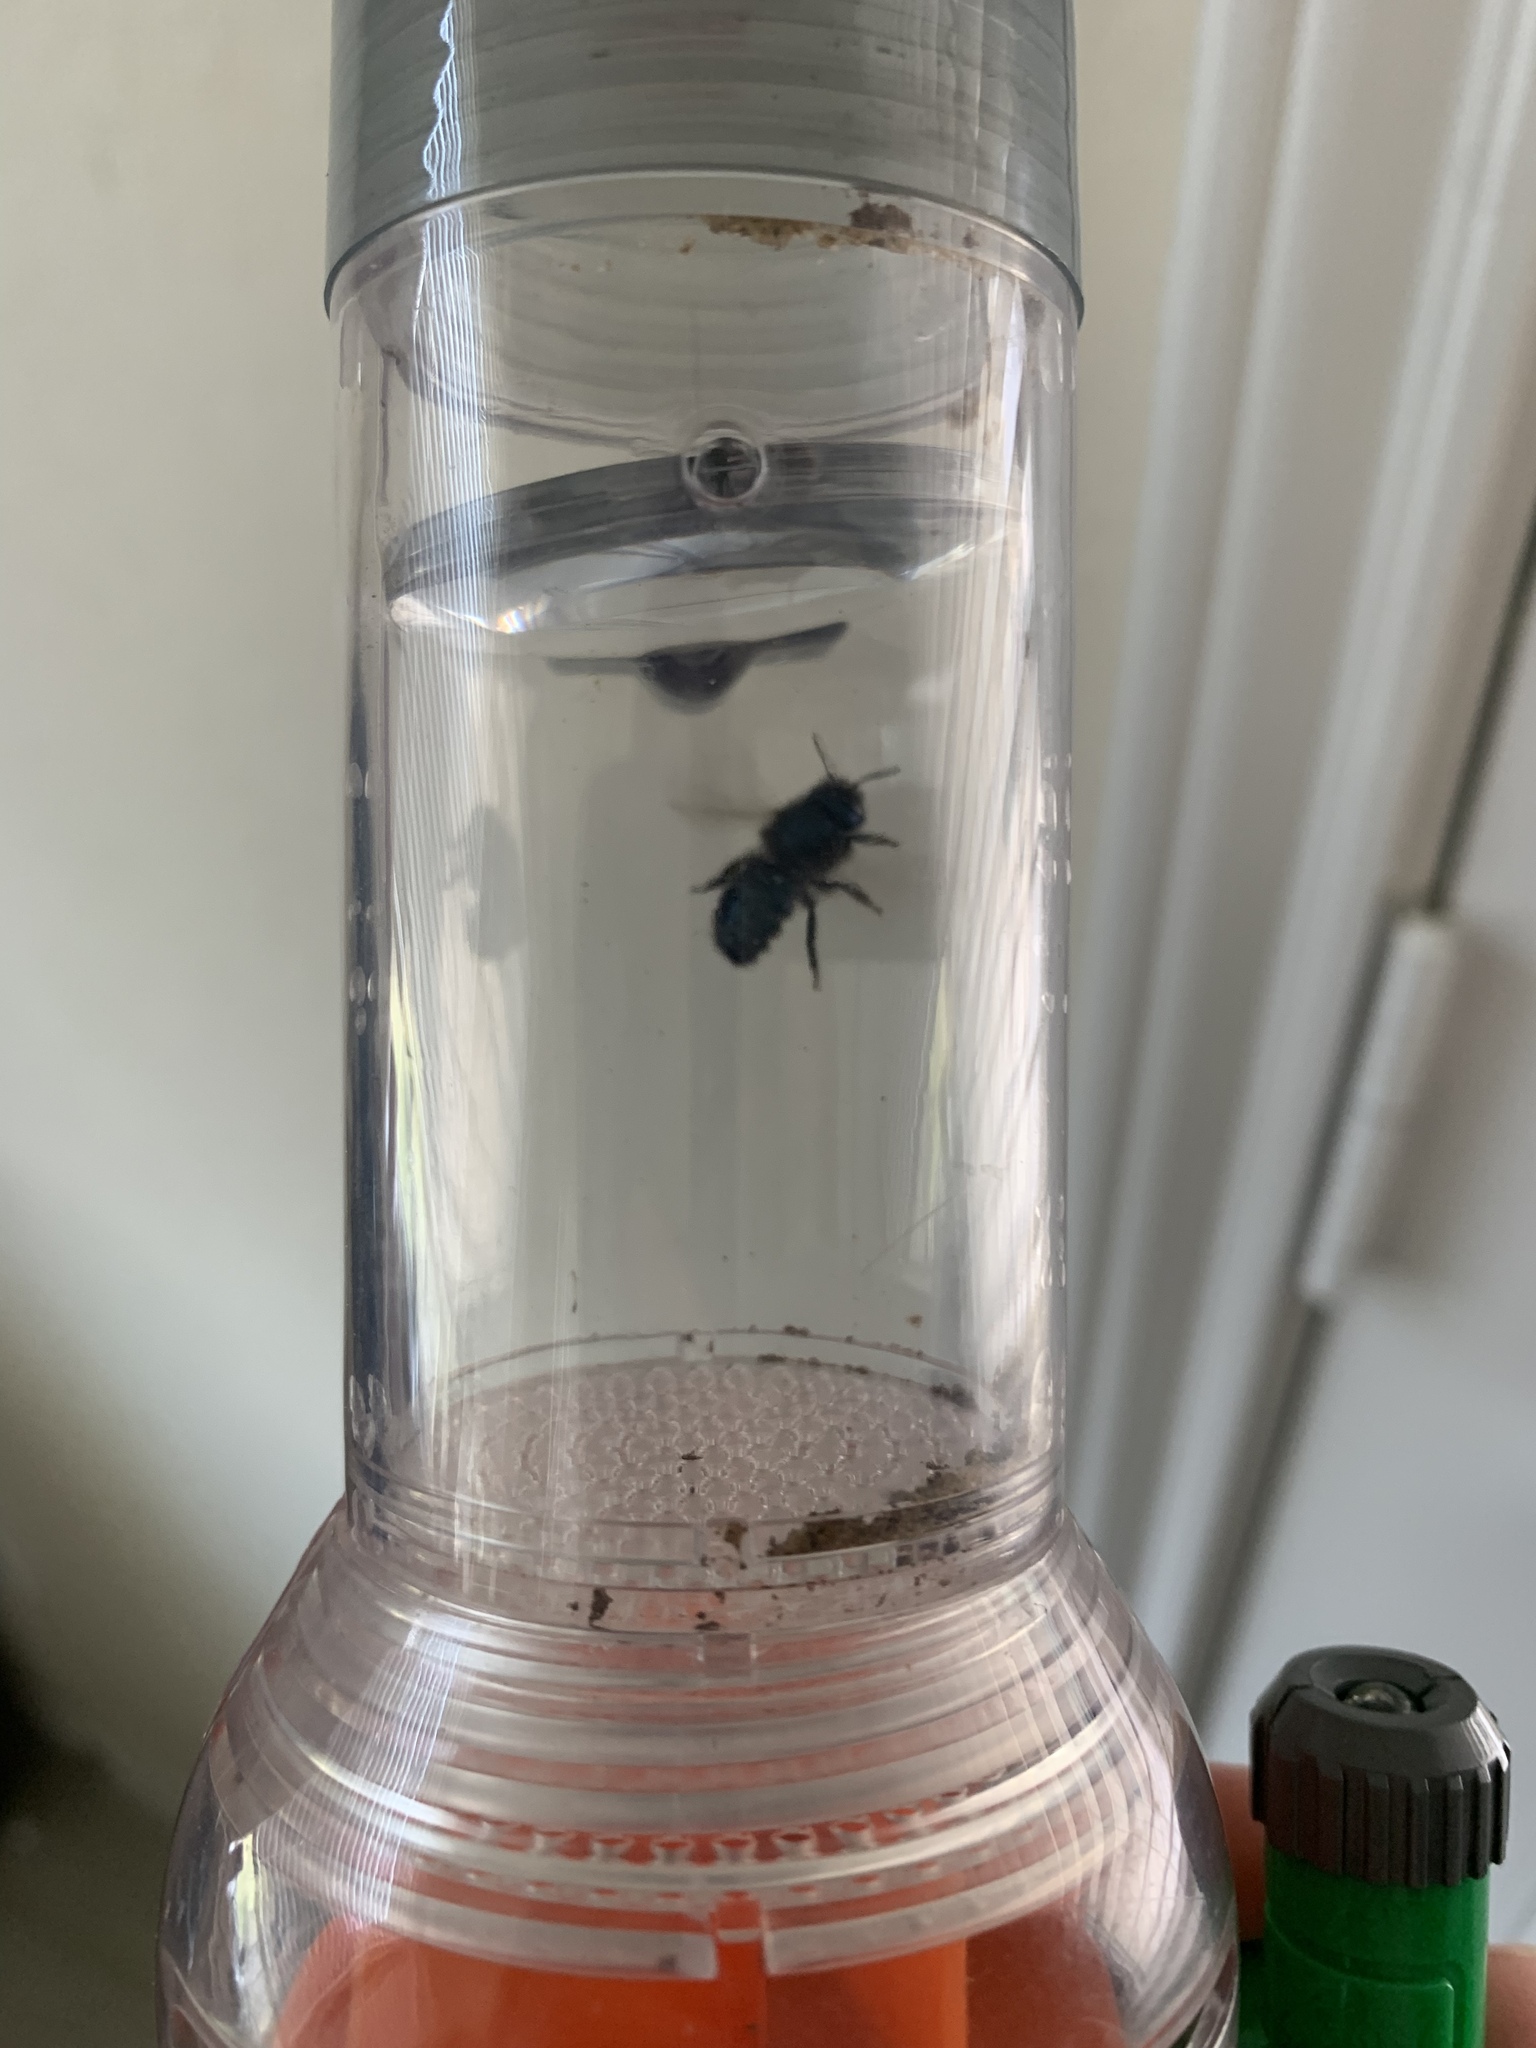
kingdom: Animalia
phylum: Arthropoda
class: Insecta
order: Hymenoptera
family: Megachilidae
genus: Osmia
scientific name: Osmia ribifloris
